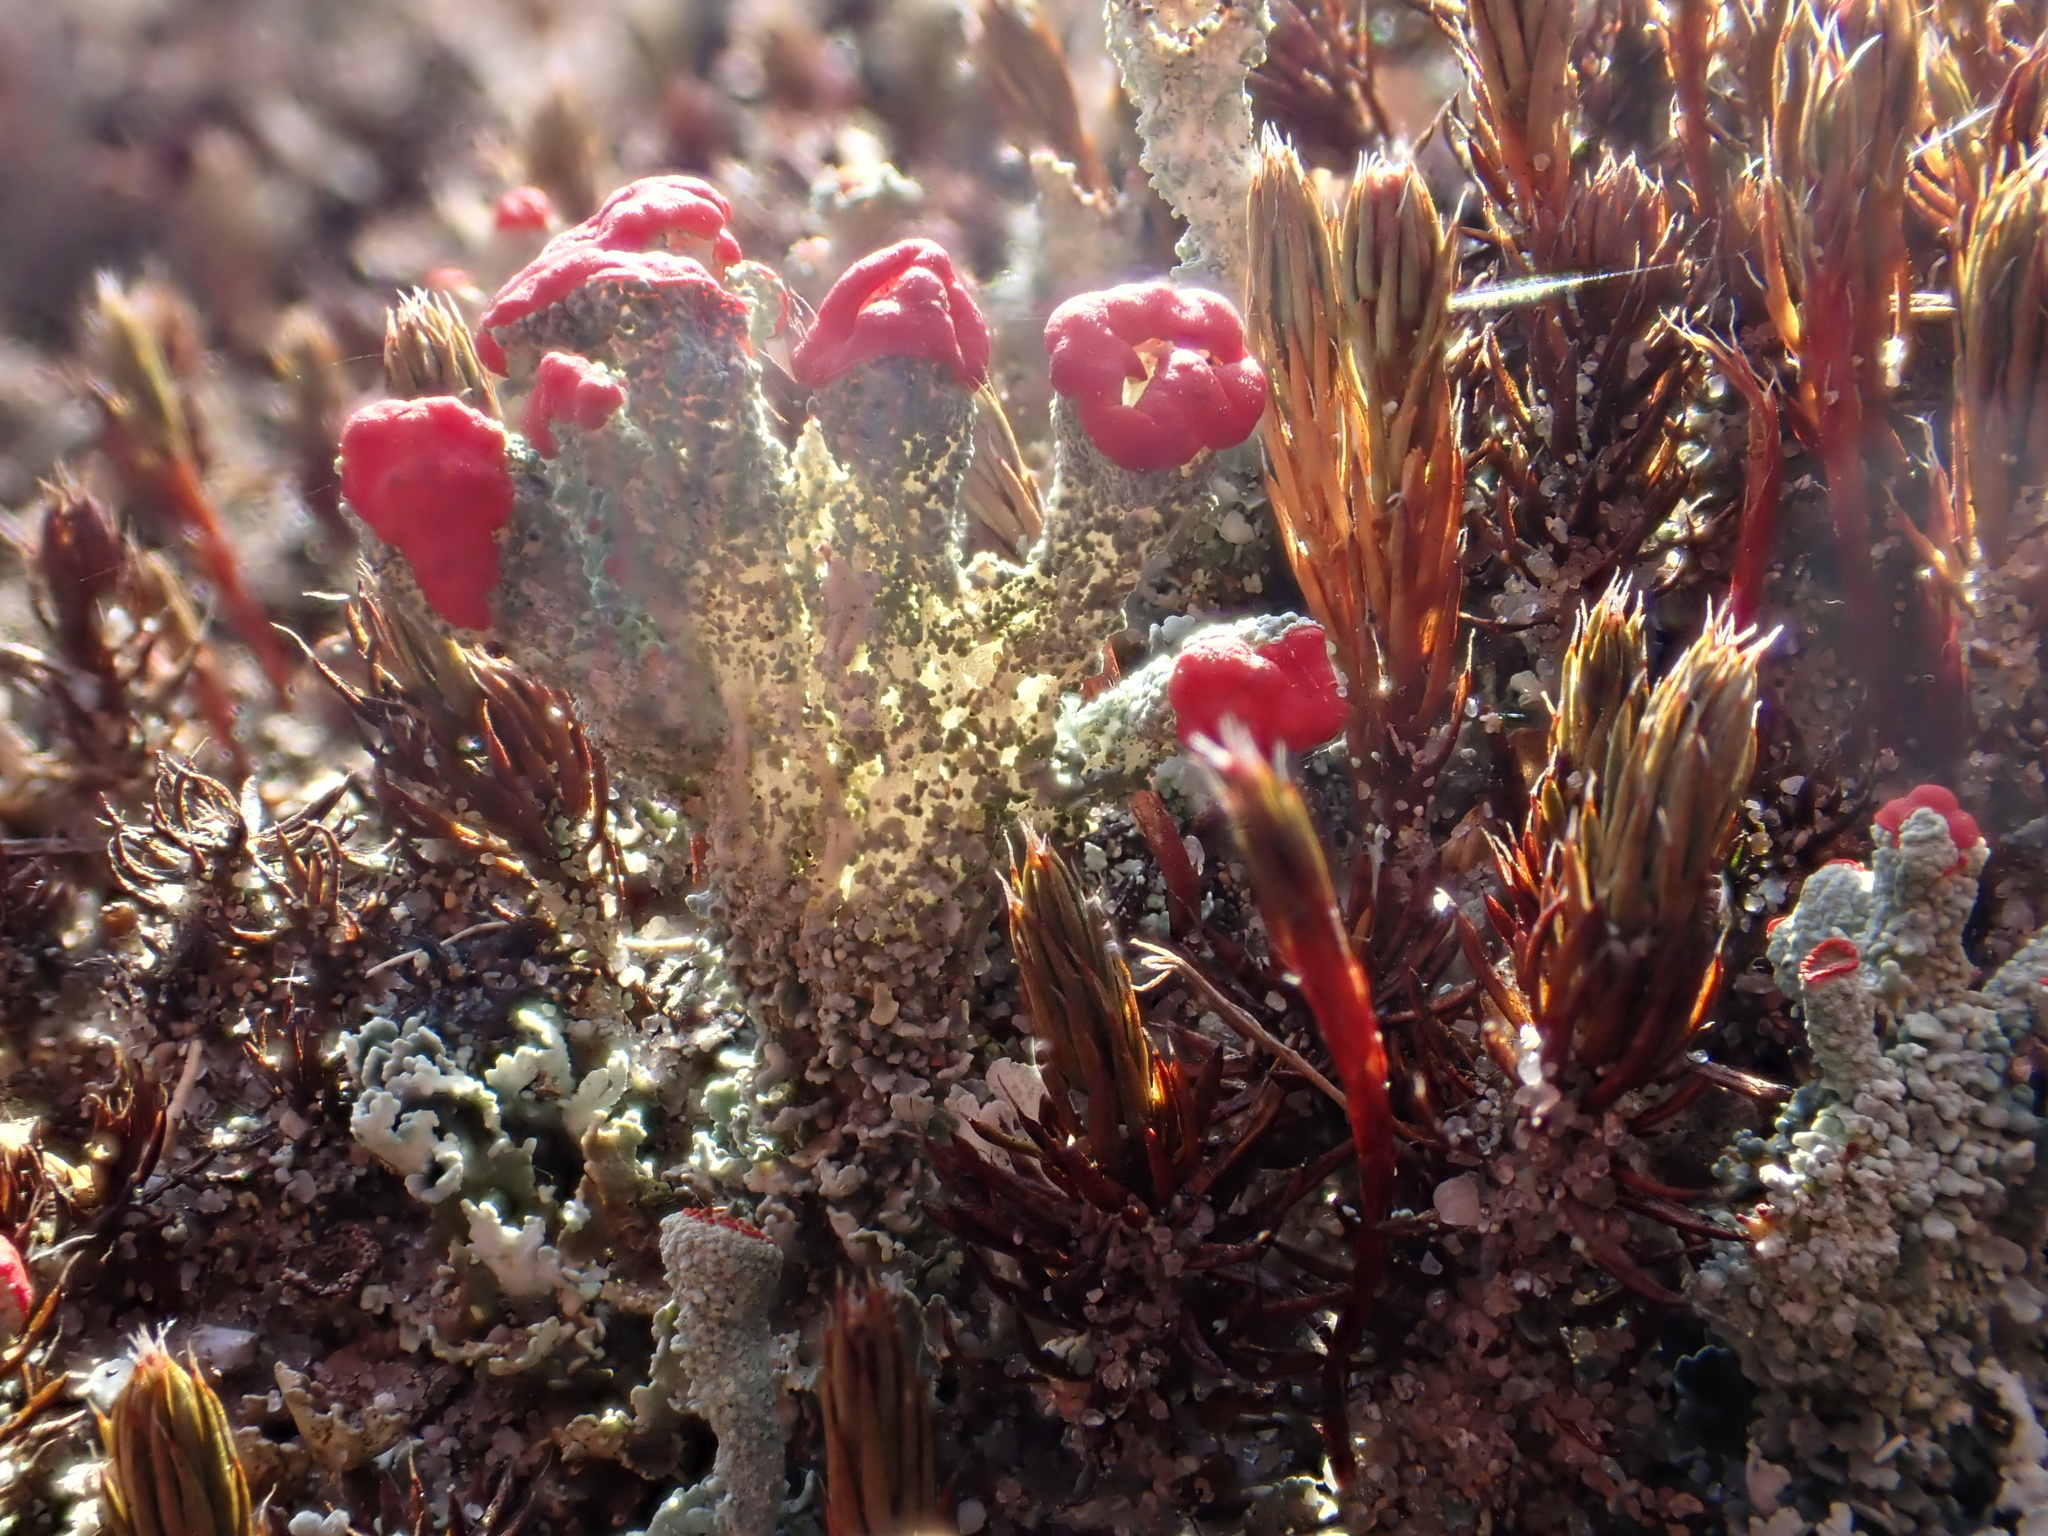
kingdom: Fungi
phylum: Ascomycota
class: Lecanoromycetes
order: Lecanorales
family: Cladoniaceae
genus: Cladonia
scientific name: Cladonia coccifera
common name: Scarlet-cup lichen
